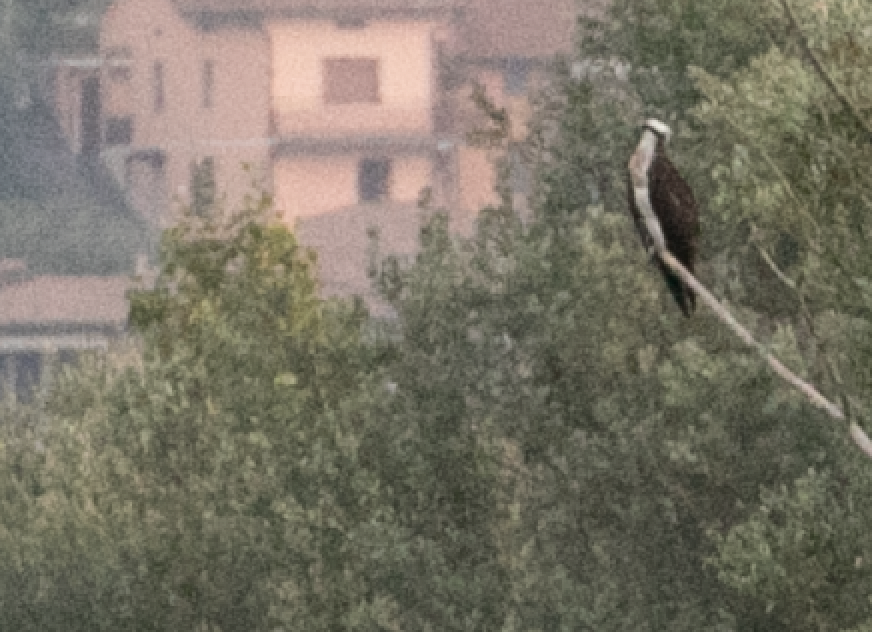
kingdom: Animalia
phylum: Chordata
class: Aves
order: Accipitriformes
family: Pandionidae
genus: Pandion
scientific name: Pandion haliaetus
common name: Osprey
